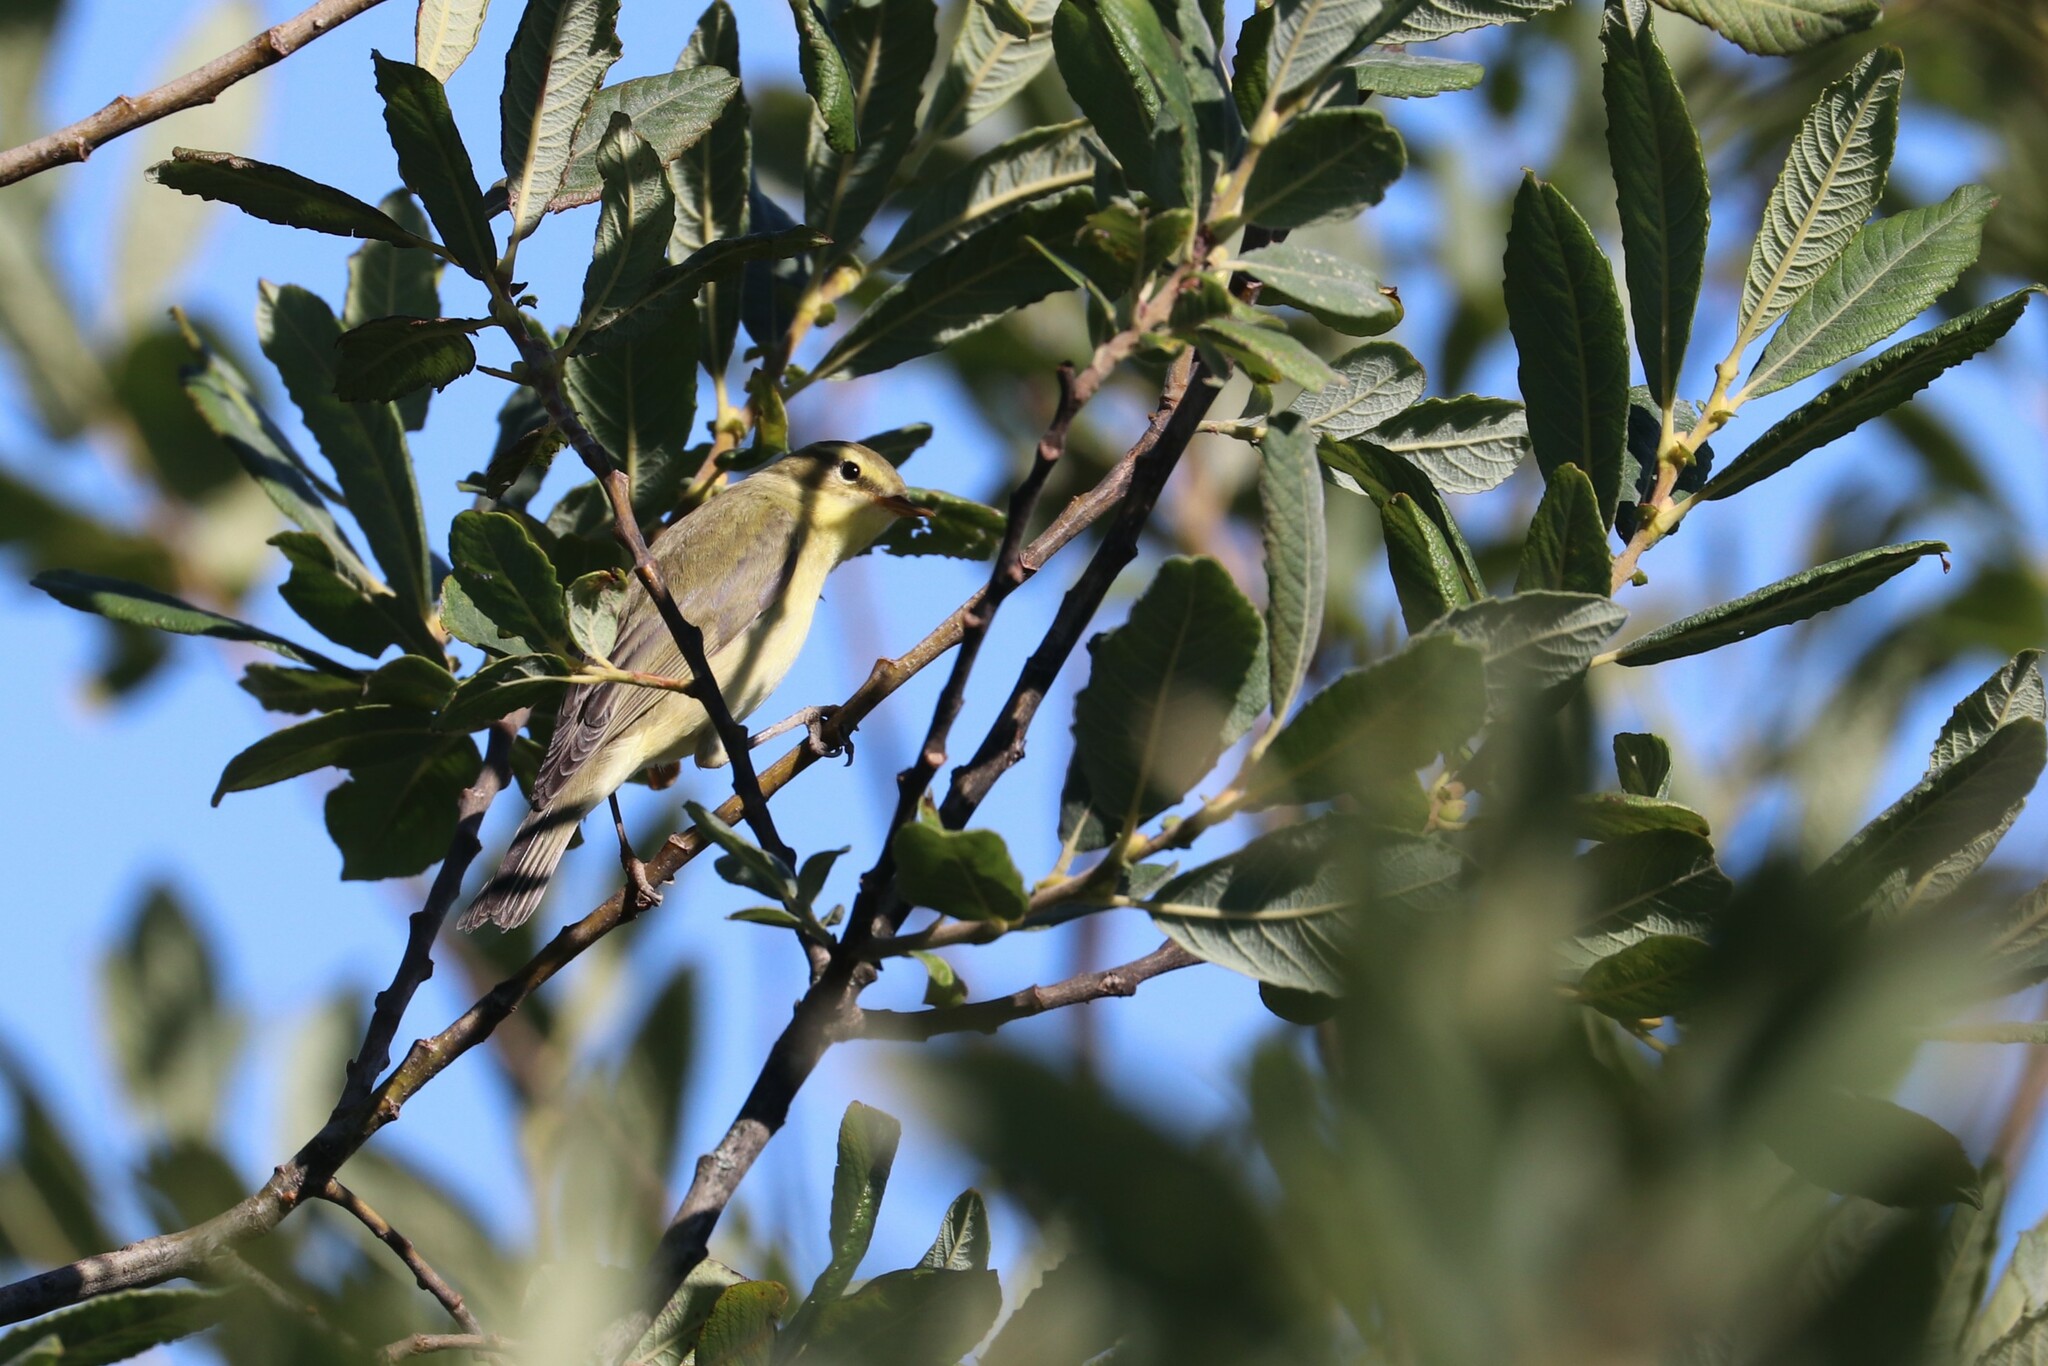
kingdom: Animalia
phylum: Chordata
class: Aves
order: Passeriformes
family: Phylloscopidae
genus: Phylloscopus
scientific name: Phylloscopus trochilus
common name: Willow warbler
